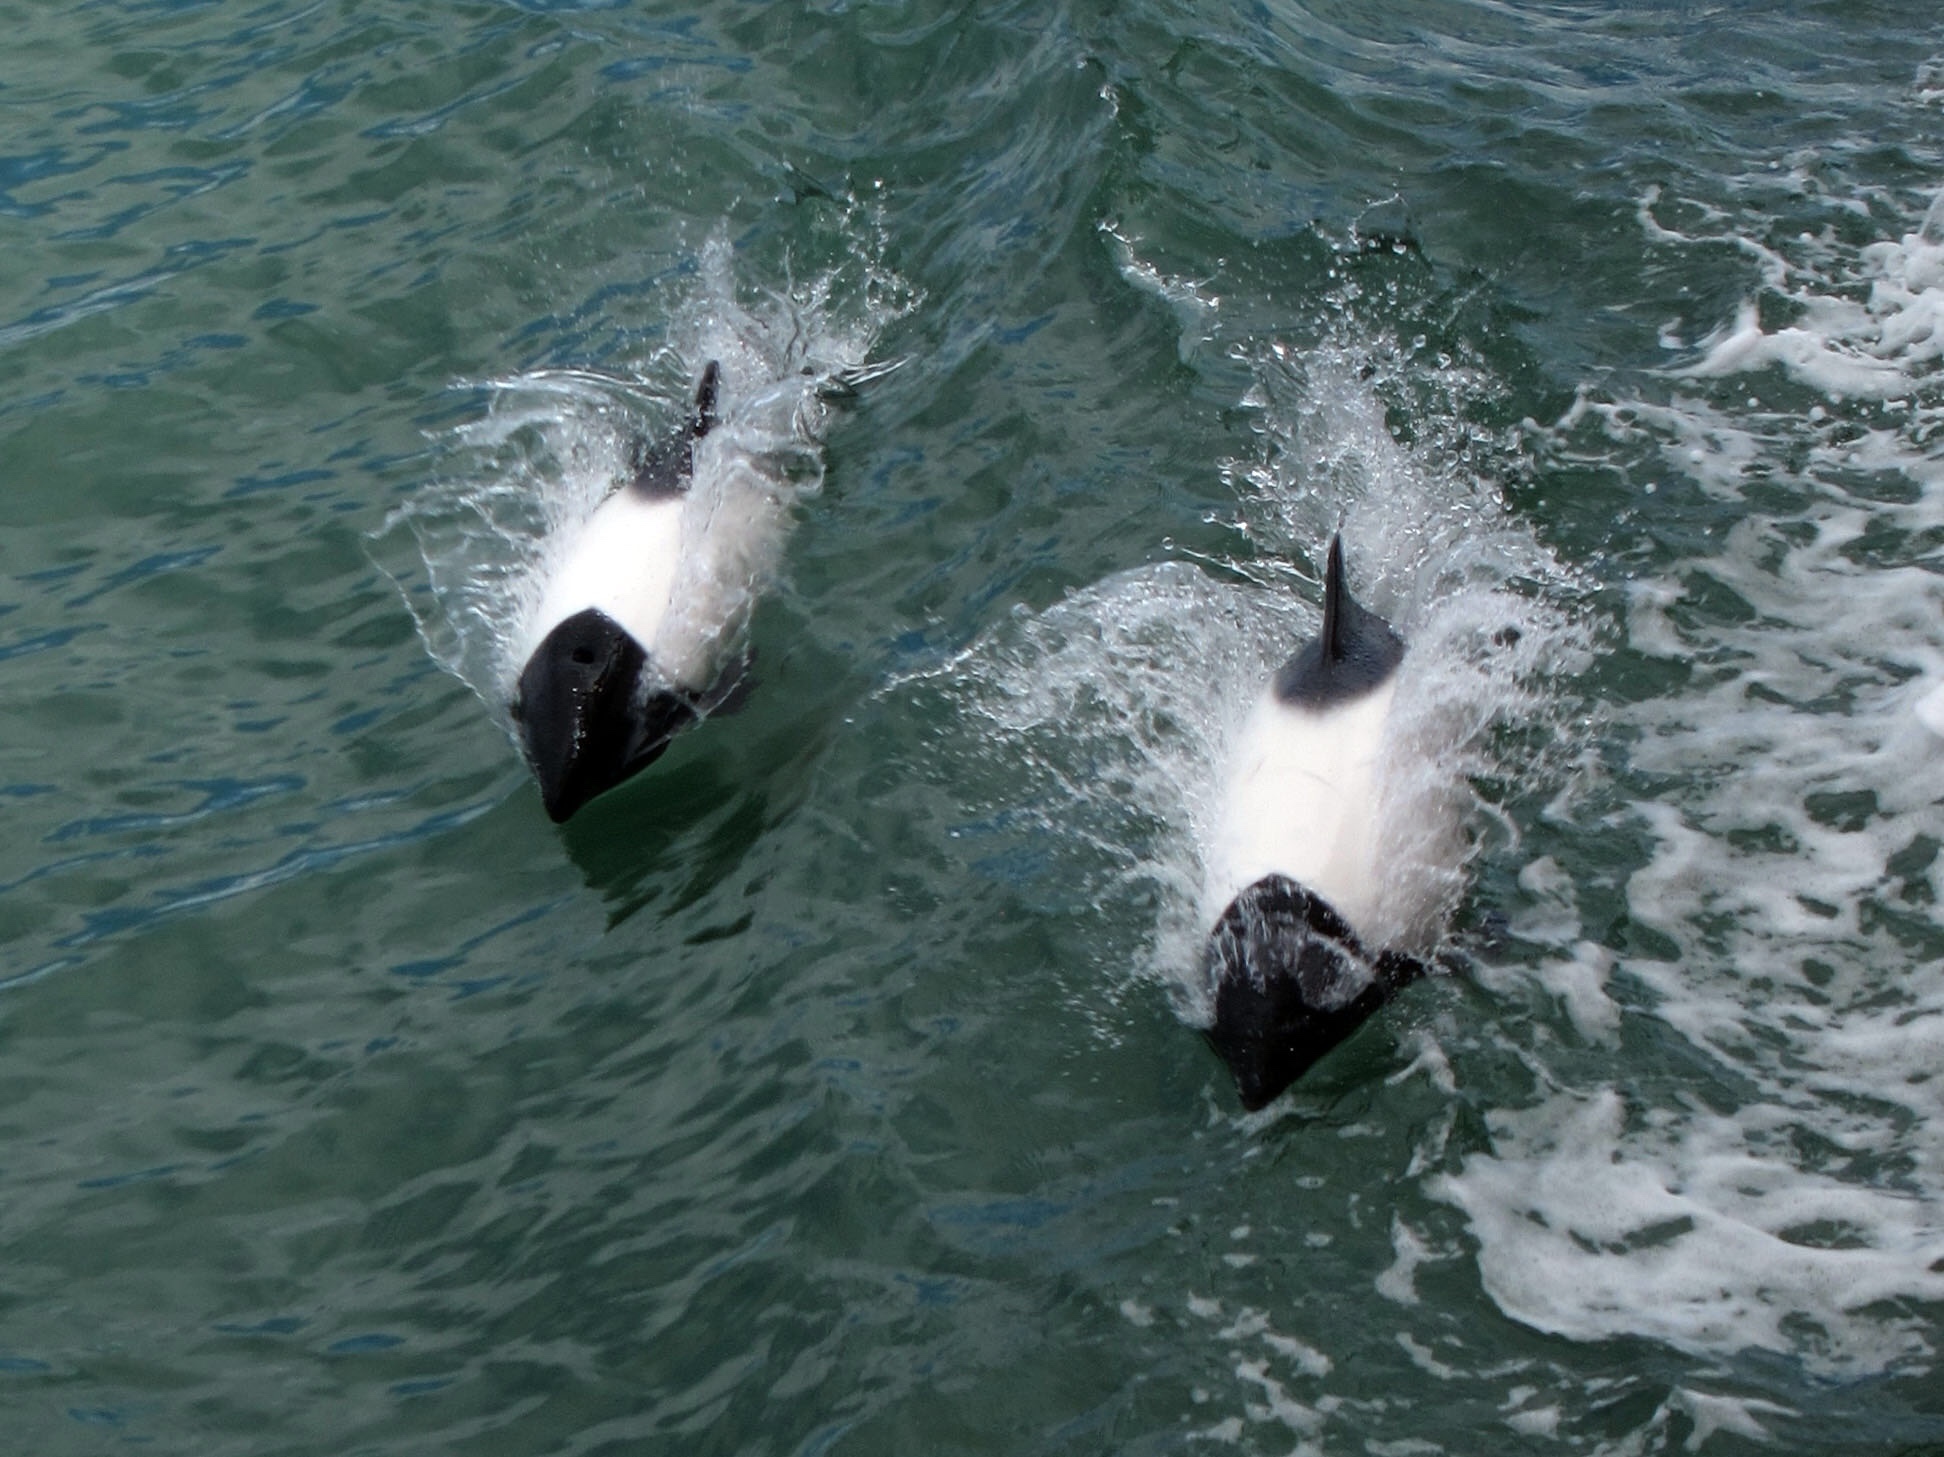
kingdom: Animalia
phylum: Chordata
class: Mammalia
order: Cetacea
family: Delphinidae
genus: Cephalorhynchus
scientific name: Cephalorhynchus commersonii
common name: Commerson's dolphin
